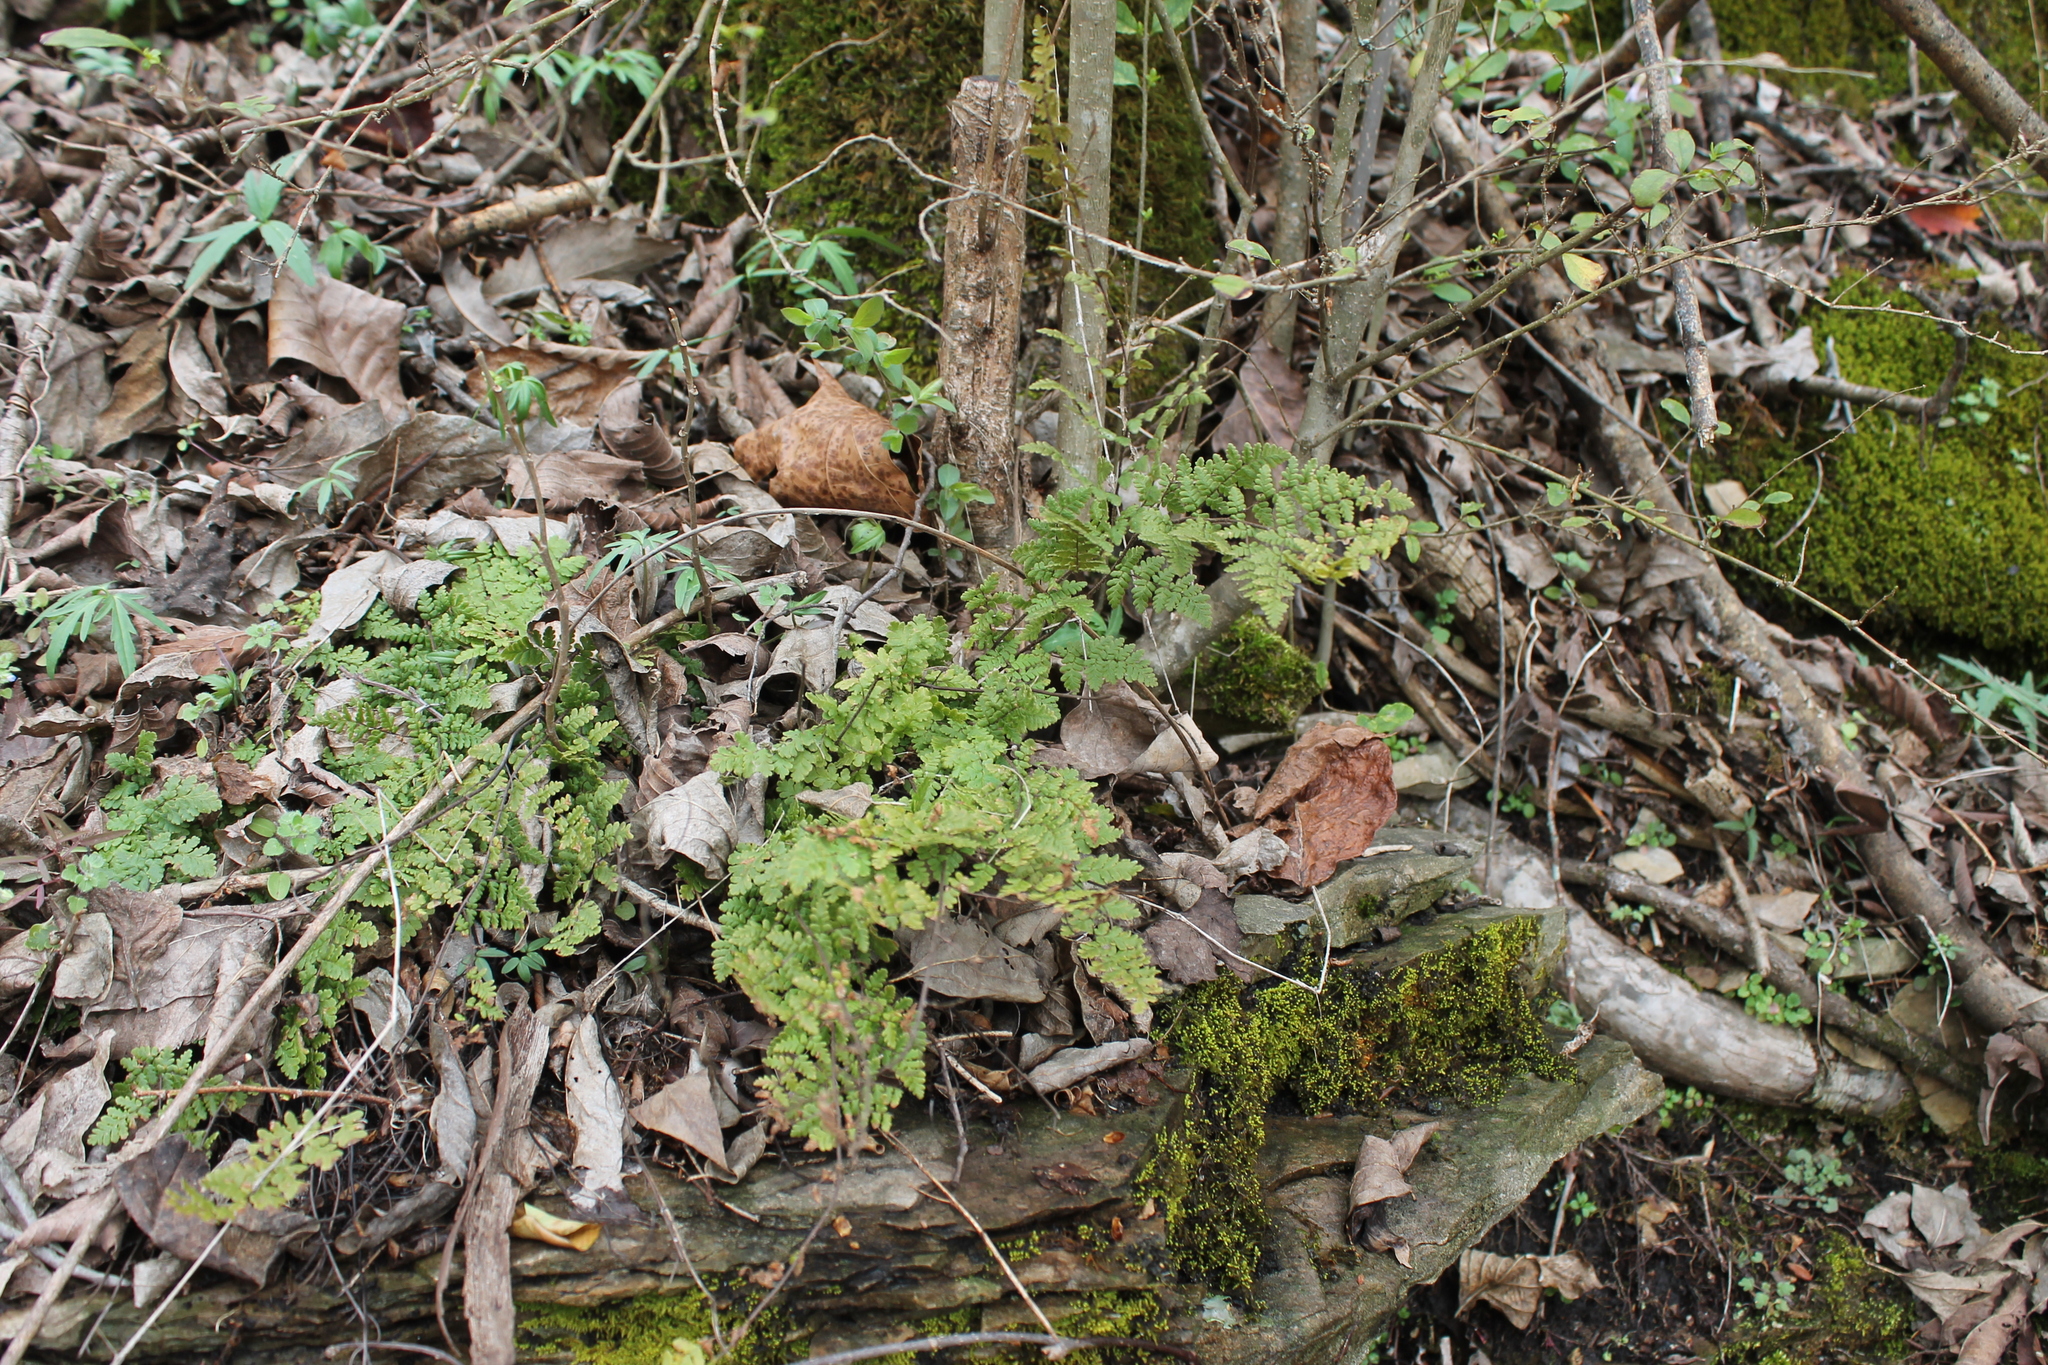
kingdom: Plantae
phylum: Tracheophyta
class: Polypodiopsida
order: Polypodiales
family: Pteridaceae
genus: Myriopteris
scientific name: Myriopteris lanosa
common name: Hairy lip fern
